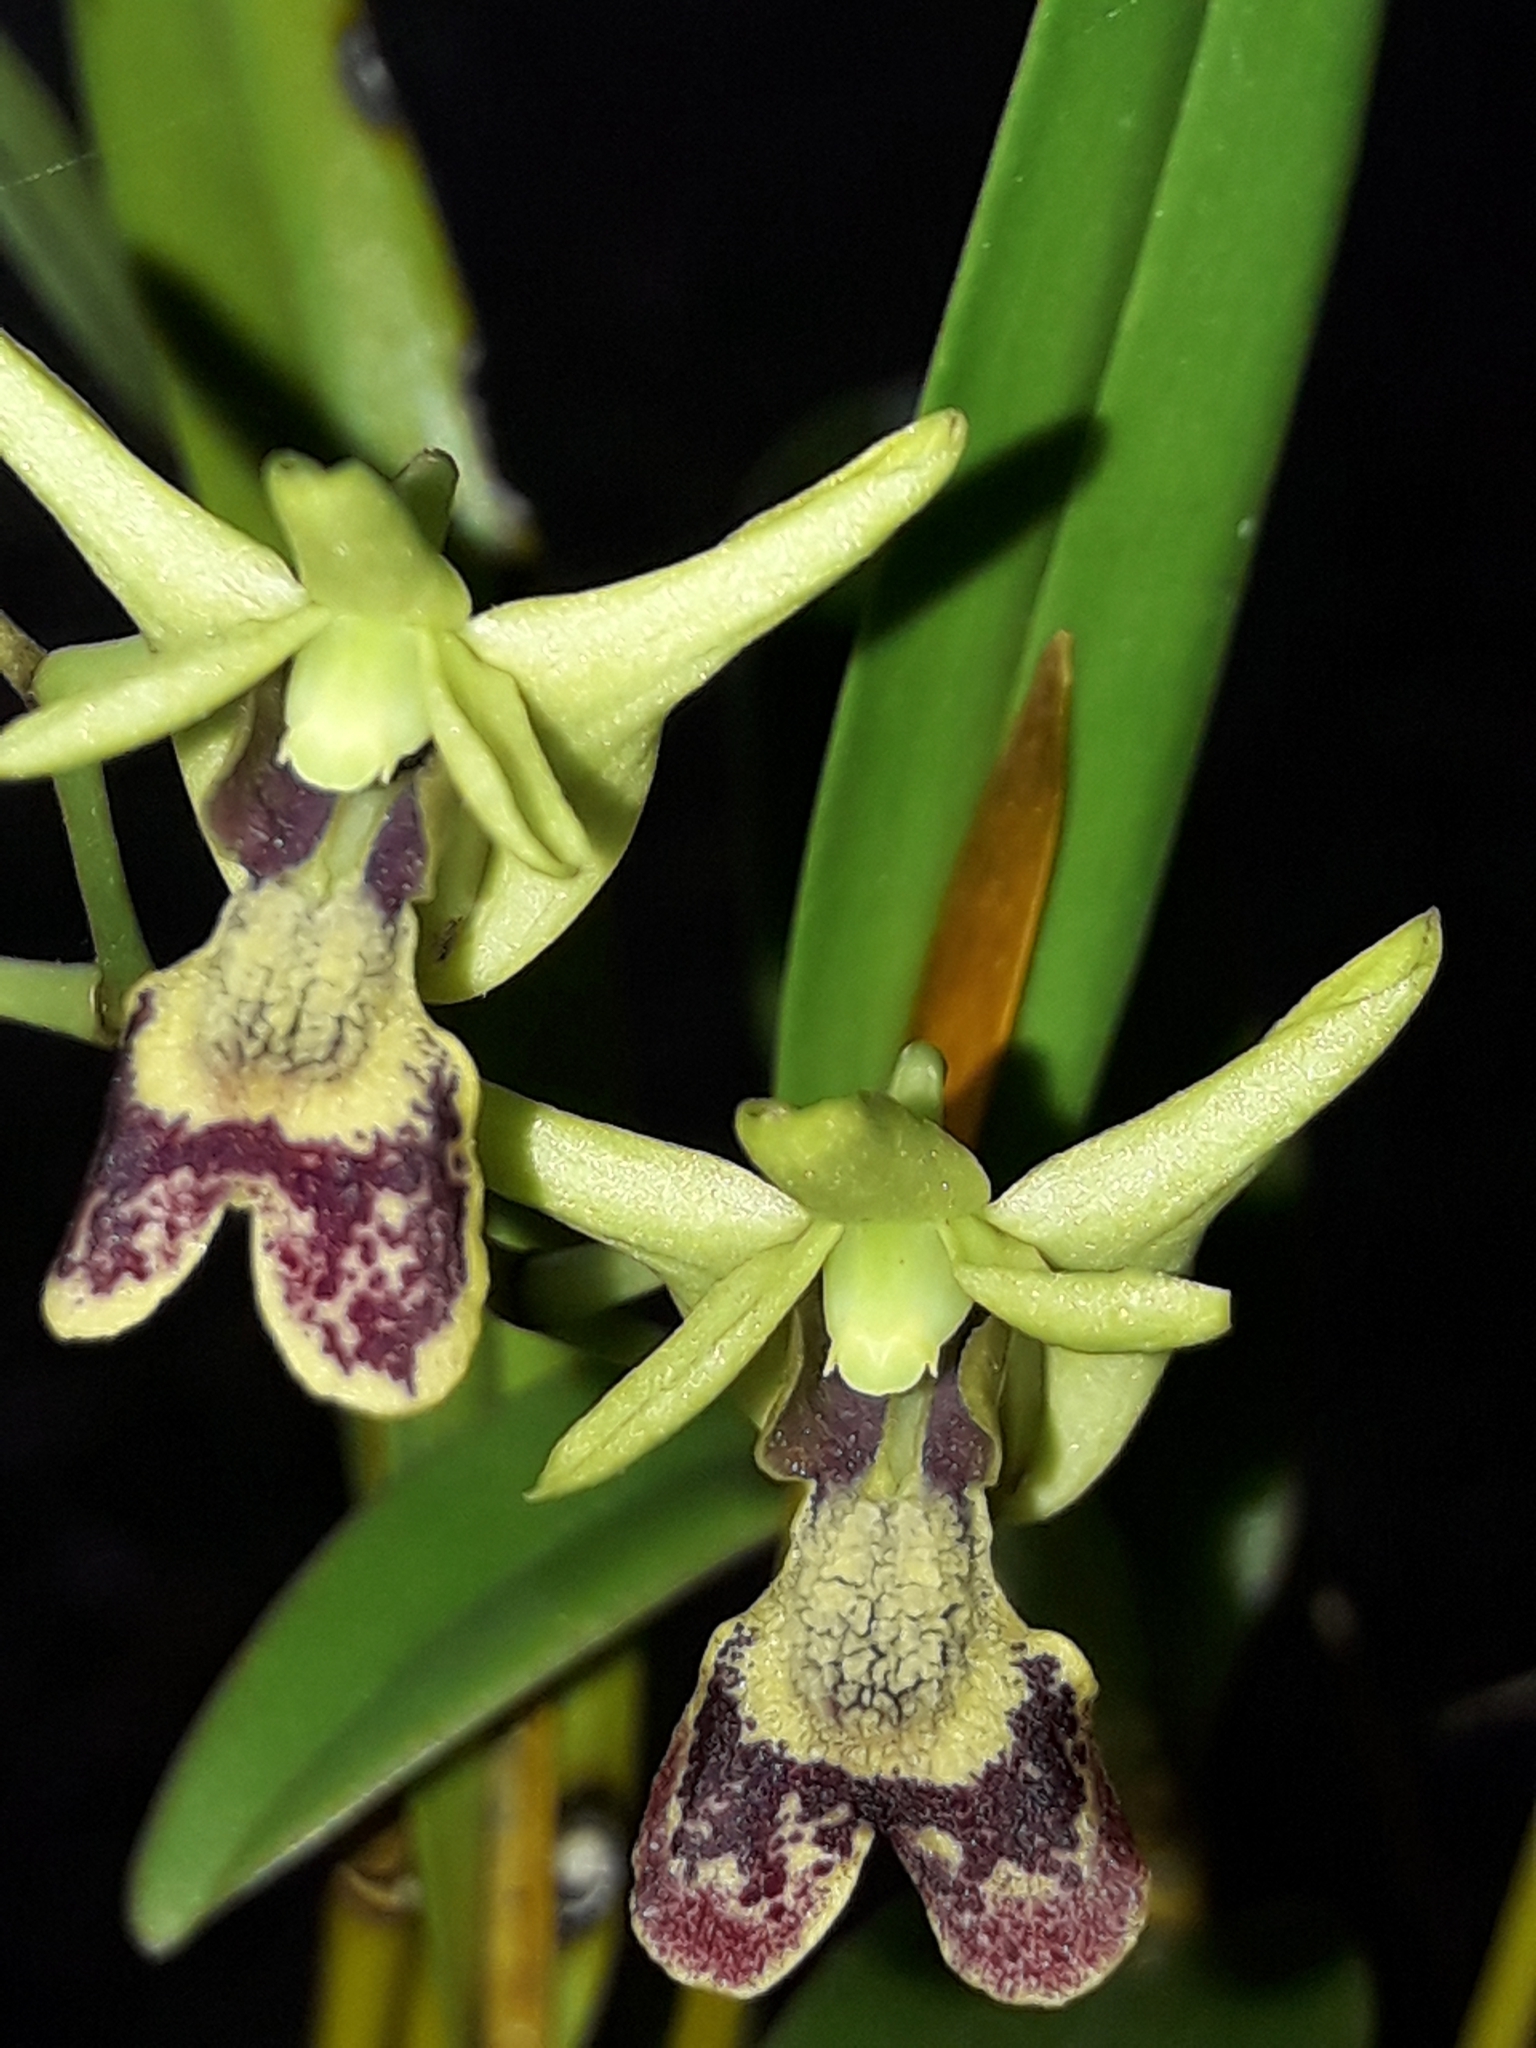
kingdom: Plantae
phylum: Tracheophyta
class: Liliopsida
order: Asparagales
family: Orchidaceae
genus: Dendrobium
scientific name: Dendrobium poissonianum
